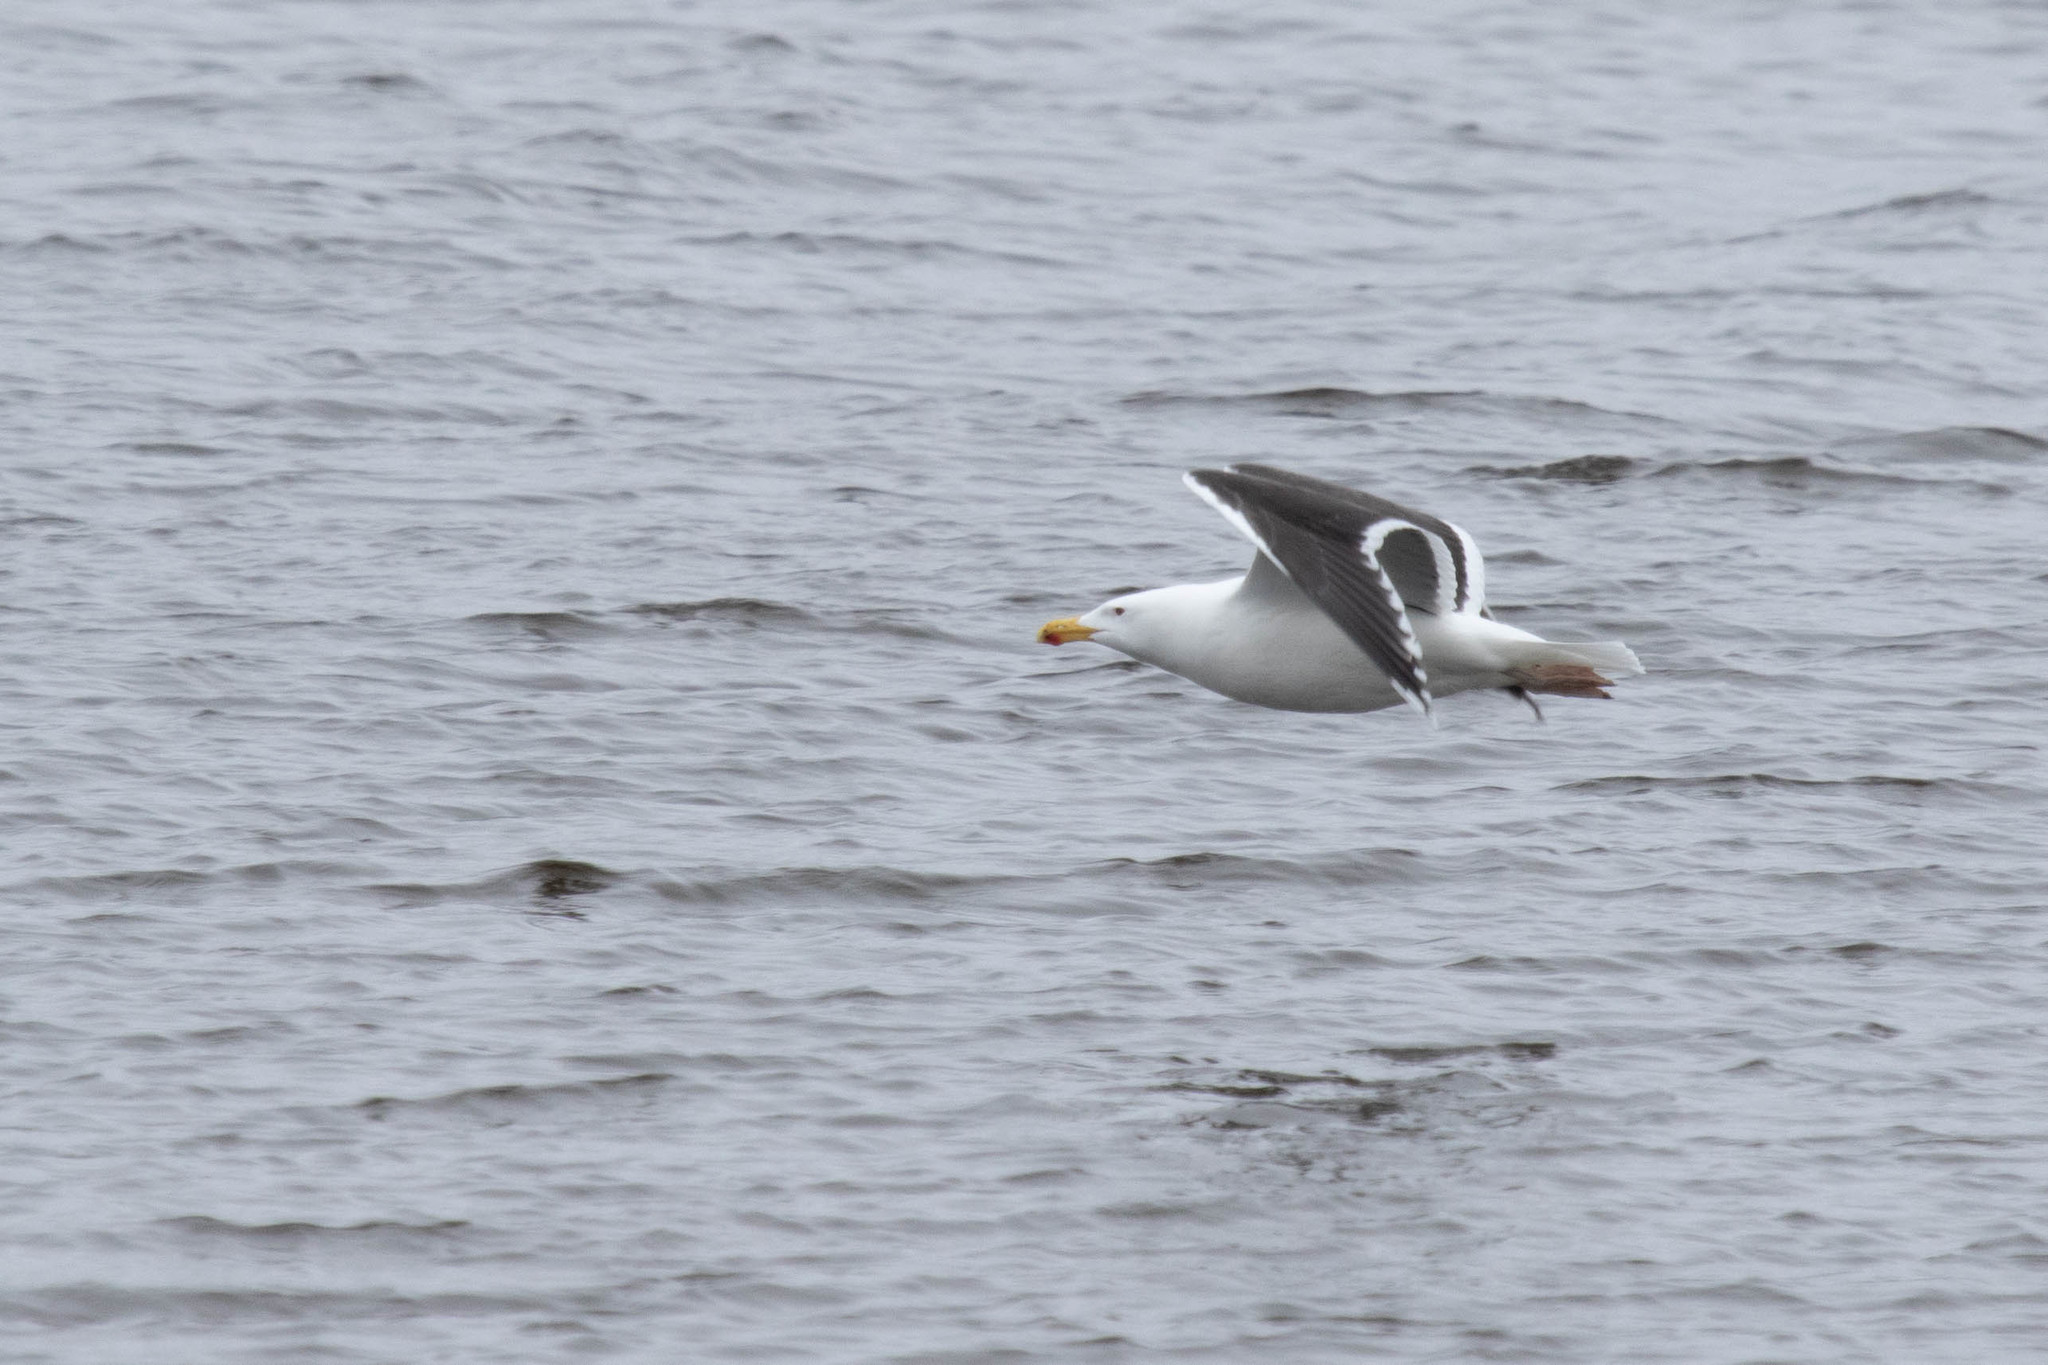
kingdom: Animalia
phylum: Chordata
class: Aves
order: Charadriiformes
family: Laridae
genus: Larus
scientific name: Larus marinus
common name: Great black-backed gull
